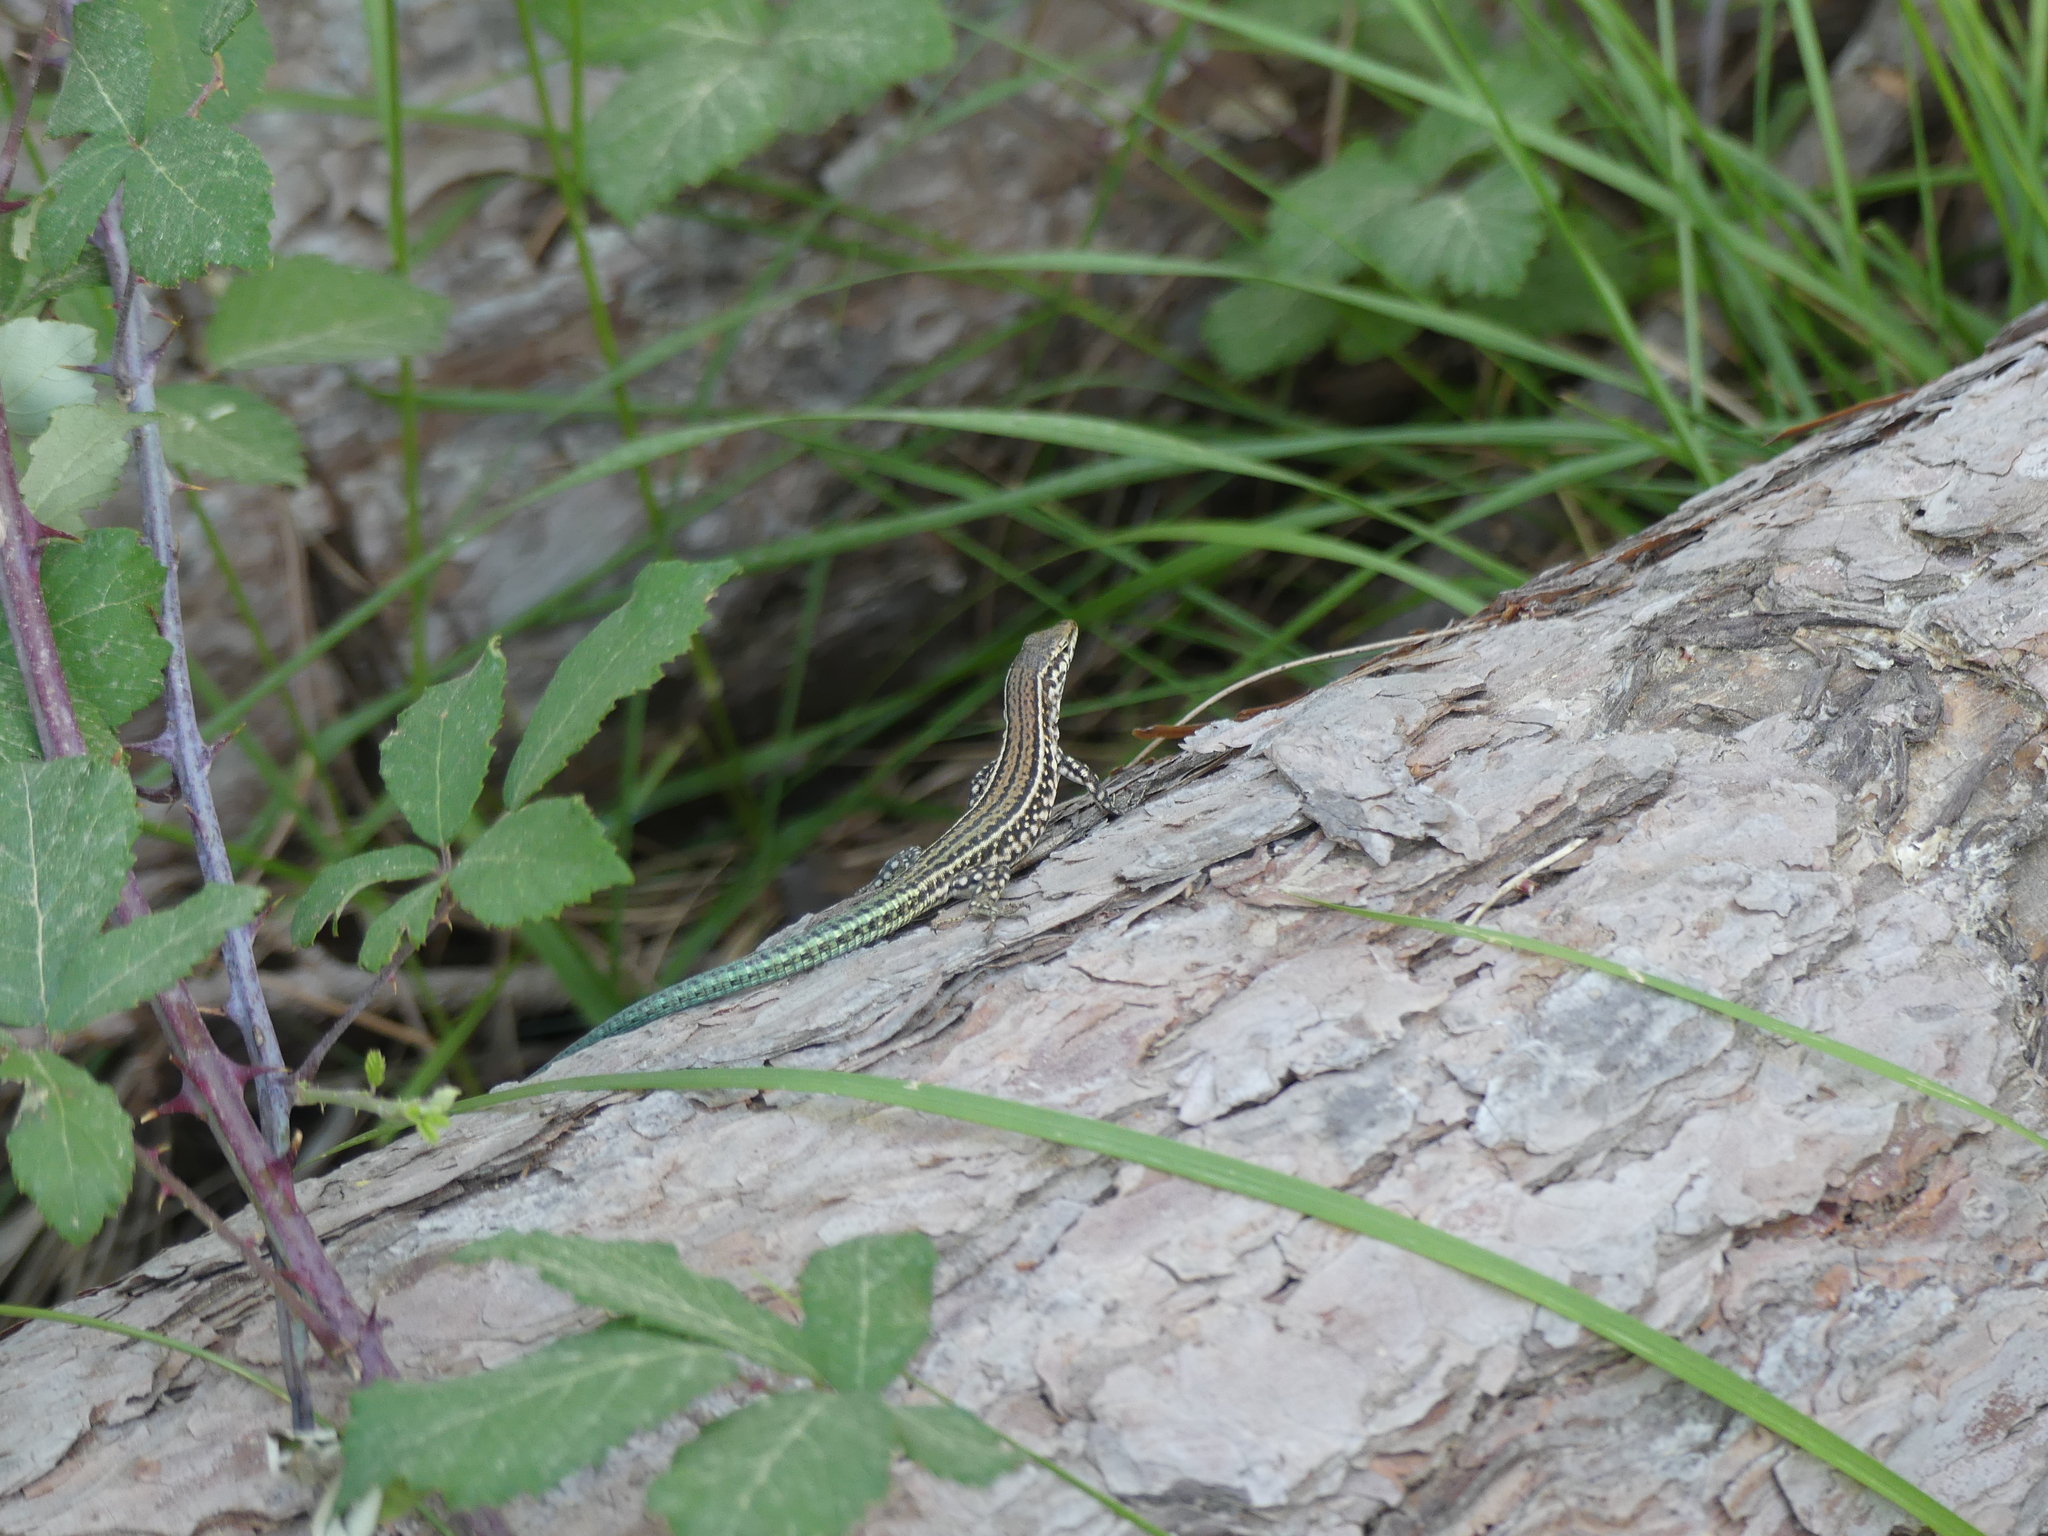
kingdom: Animalia
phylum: Chordata
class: Squamata
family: Lacertidae
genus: Podarcis
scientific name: Podarcis tiliguerta
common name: Tyrrhenian wall lizard
